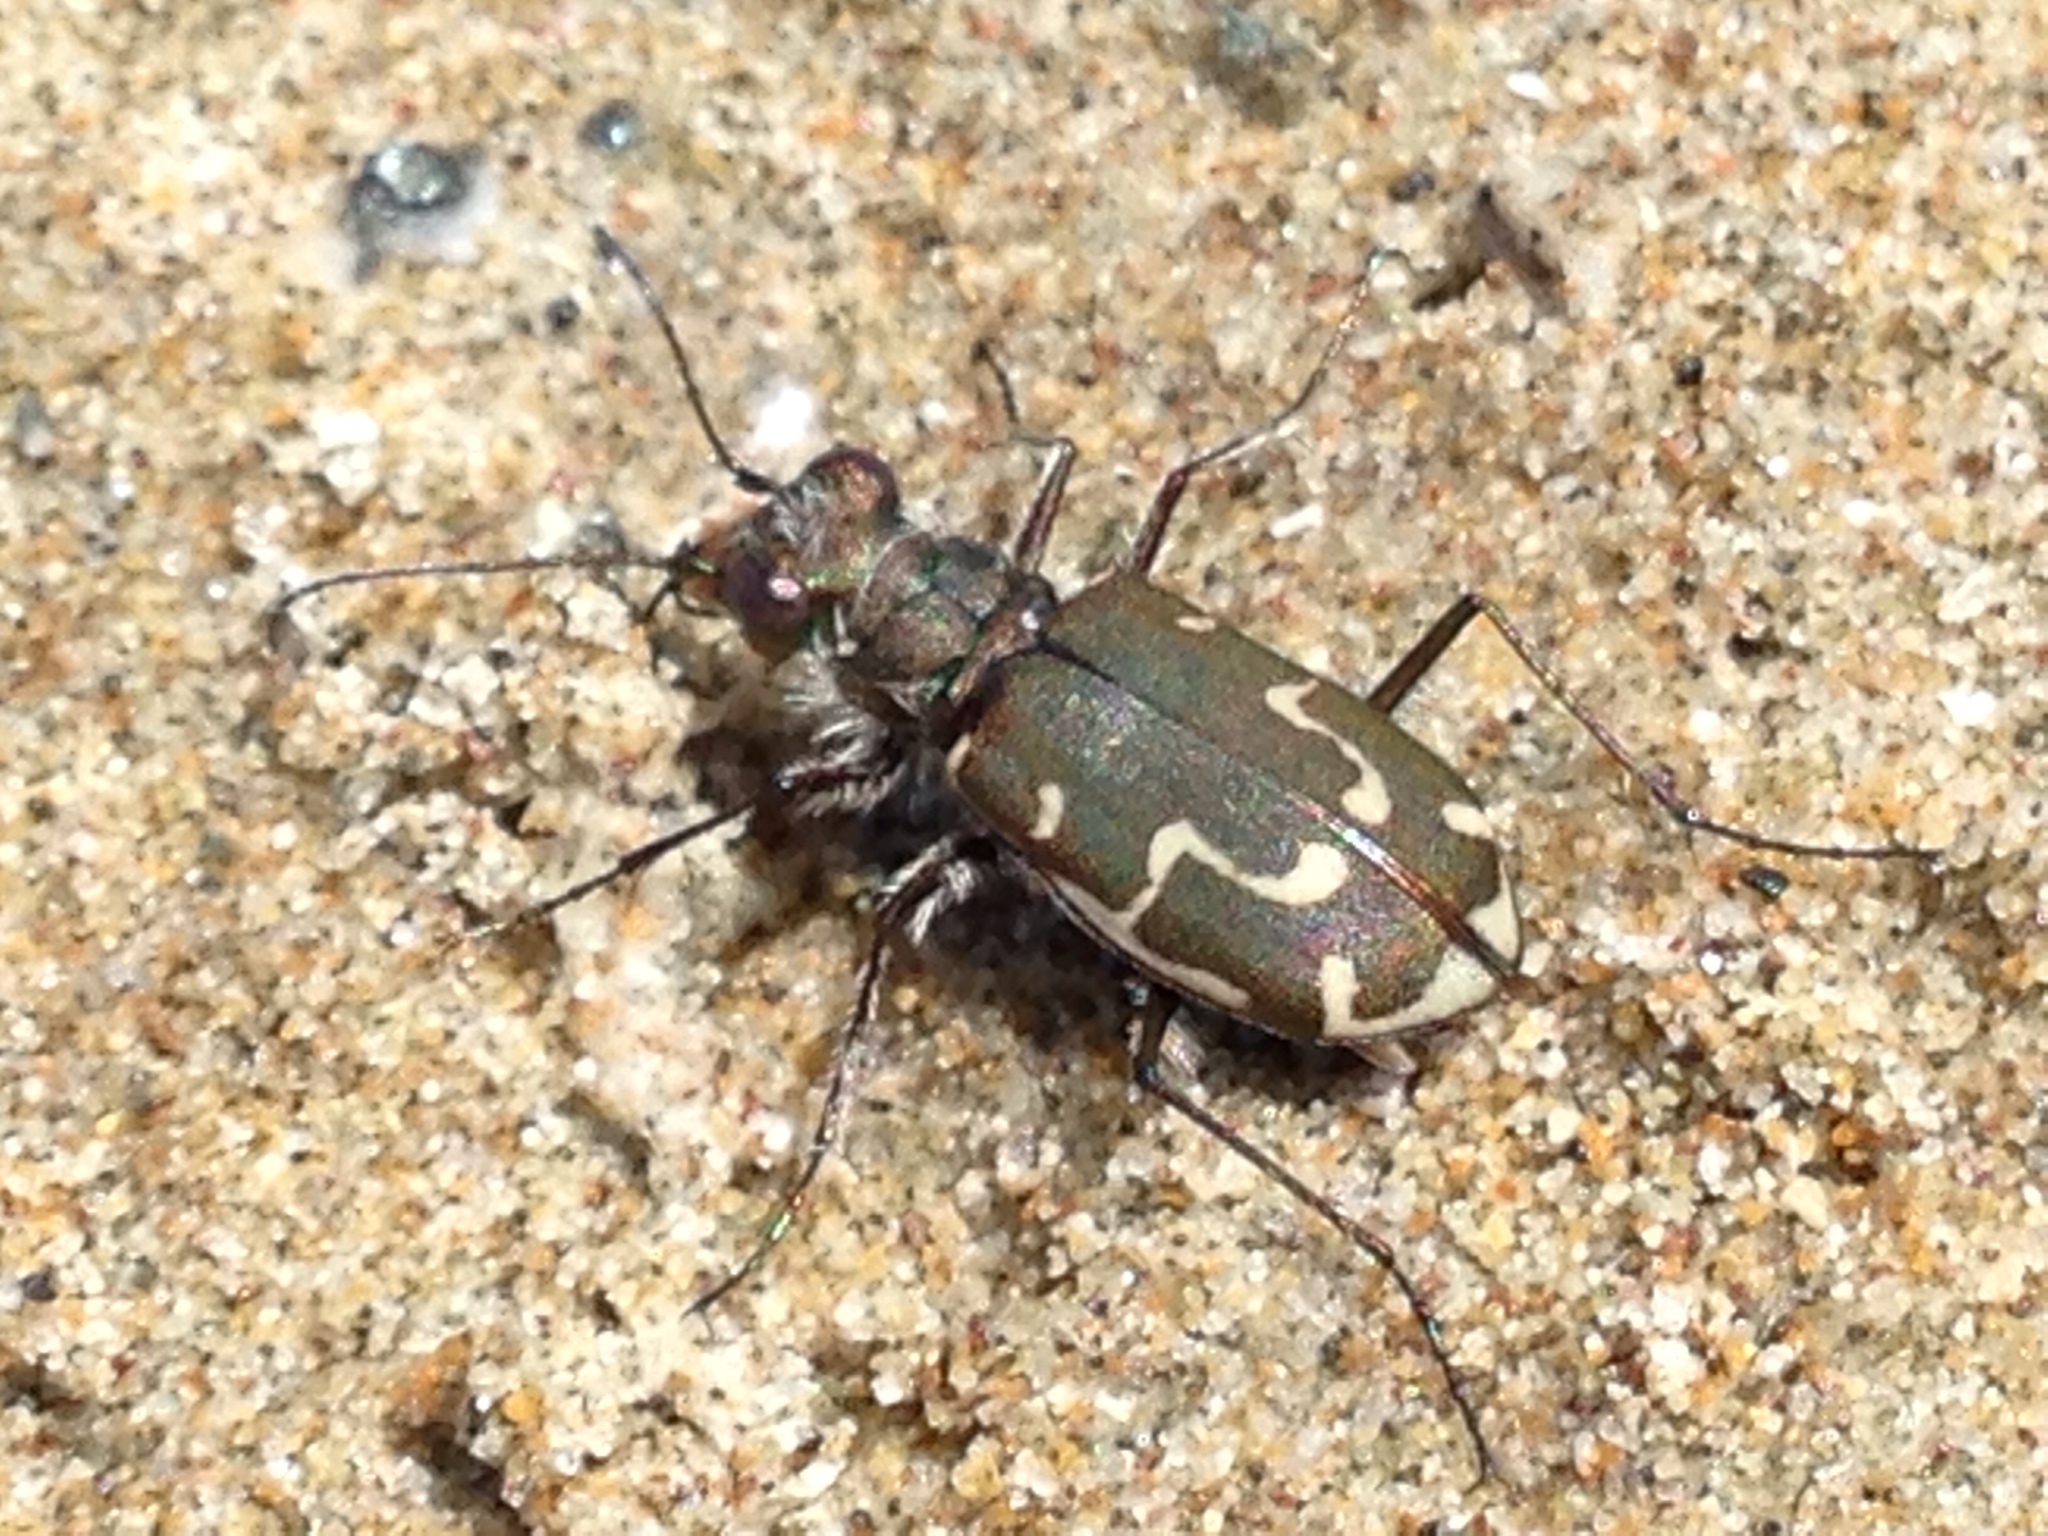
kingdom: Animalia
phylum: Arthropoda
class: Insecta
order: Coleoptera
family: Carabidae
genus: Cicindela
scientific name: Cicindela hirticollis
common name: Hairy-necked tiger beetle
